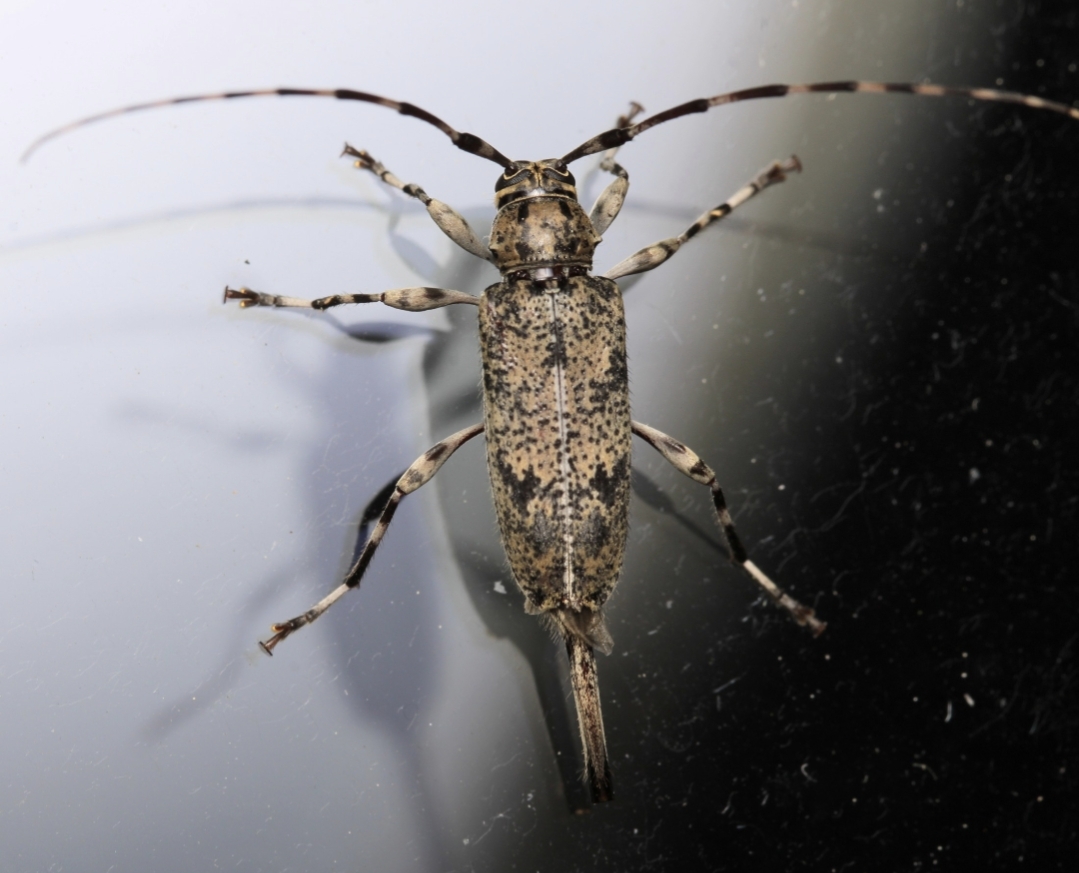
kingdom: Animalia
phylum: Arthropoda
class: Insecta
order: Coleoptera
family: Cerambycidae
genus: Graphisurus
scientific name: Graphisurus fasciatus
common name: Banded graphisurus
